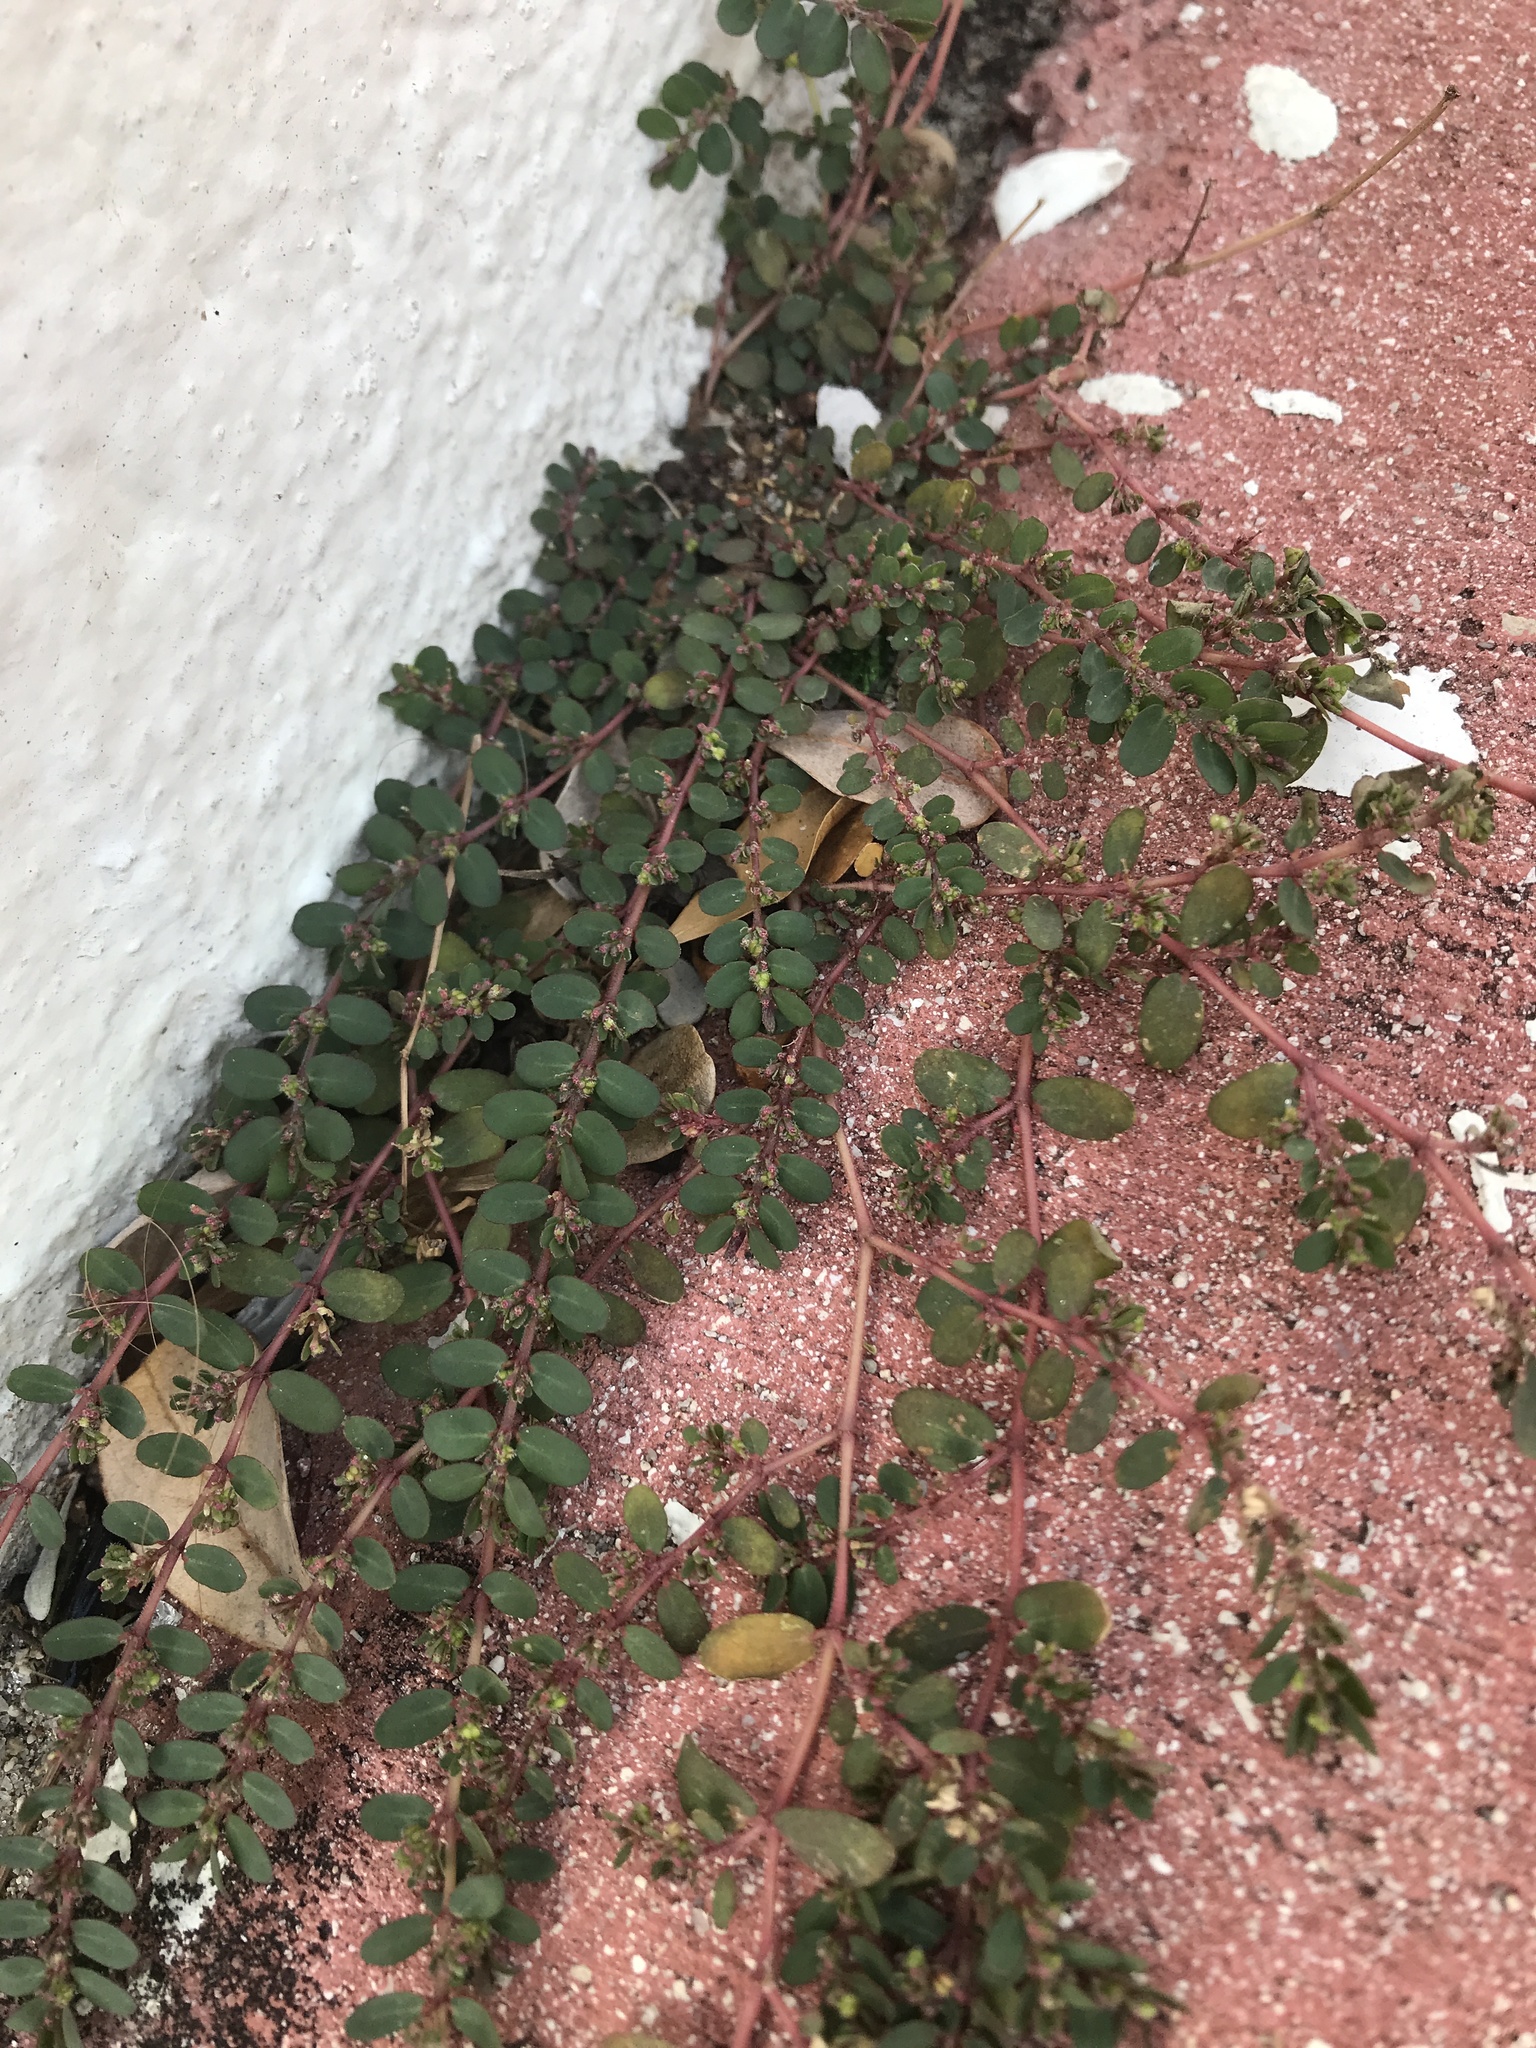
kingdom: Plantae
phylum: Tracheophyta
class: Magnoliopsida
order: Malpighiales
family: Euphorbiaceae
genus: Euphorbia
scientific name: Euphorbia prostrata
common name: Prostrate sandmat
